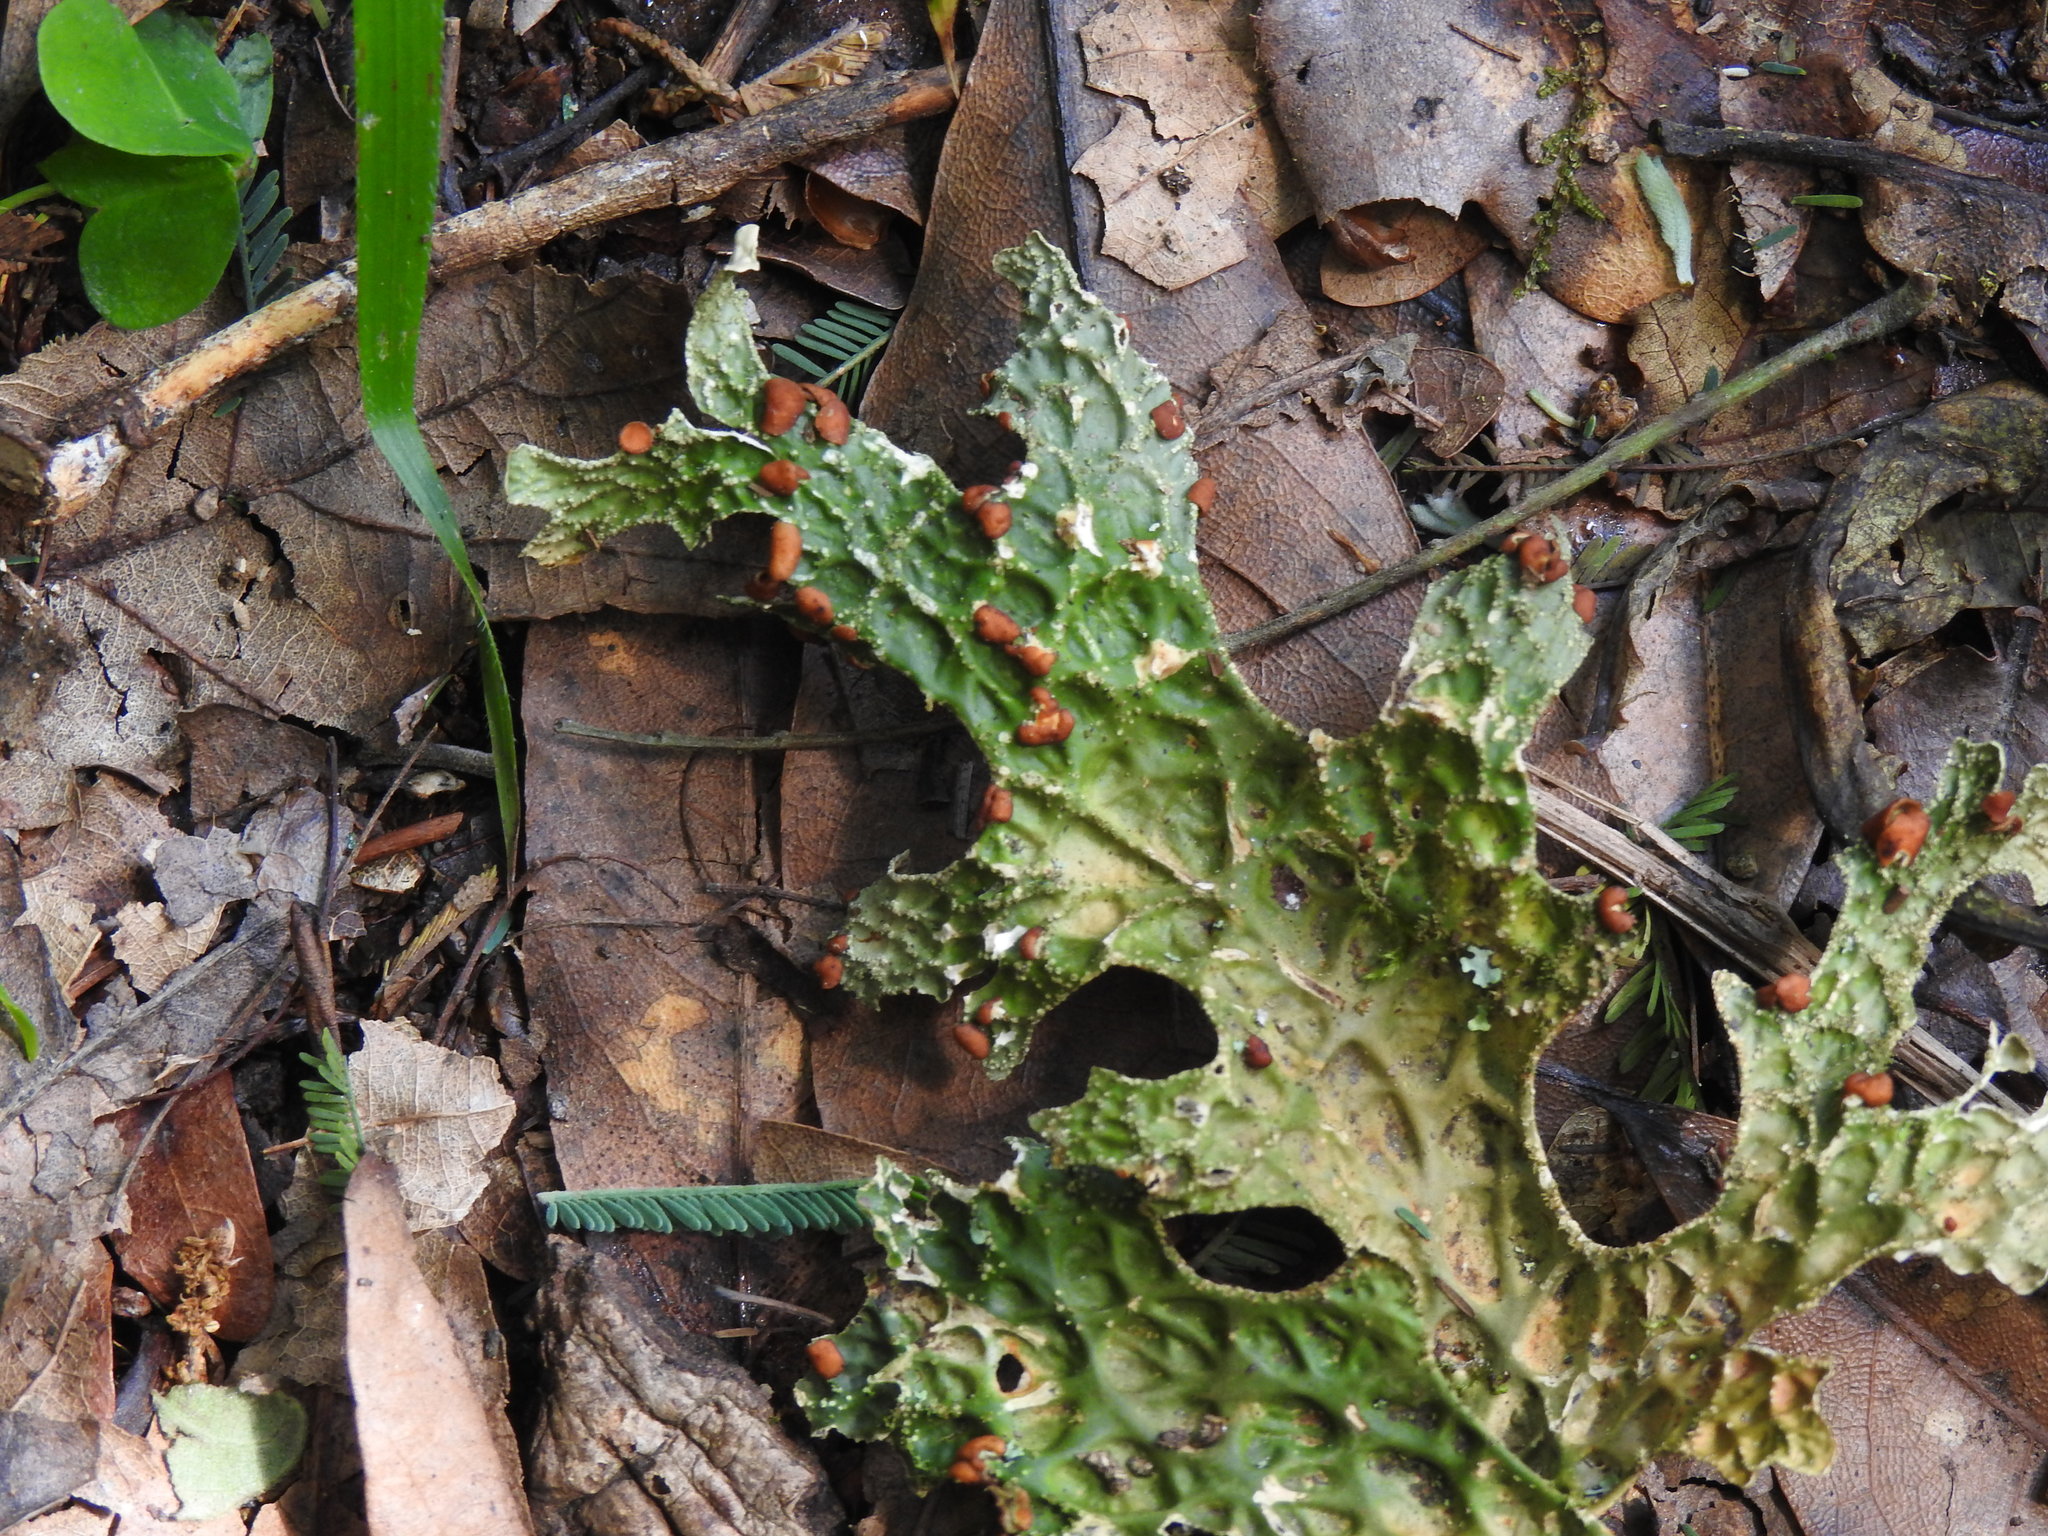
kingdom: Fungi
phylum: Ascomycota
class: Lecanoromycetes
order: Peltigerales
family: Lobariaceae
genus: Lobaria
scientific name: Lobaria pulmonaria
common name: Lungwort
